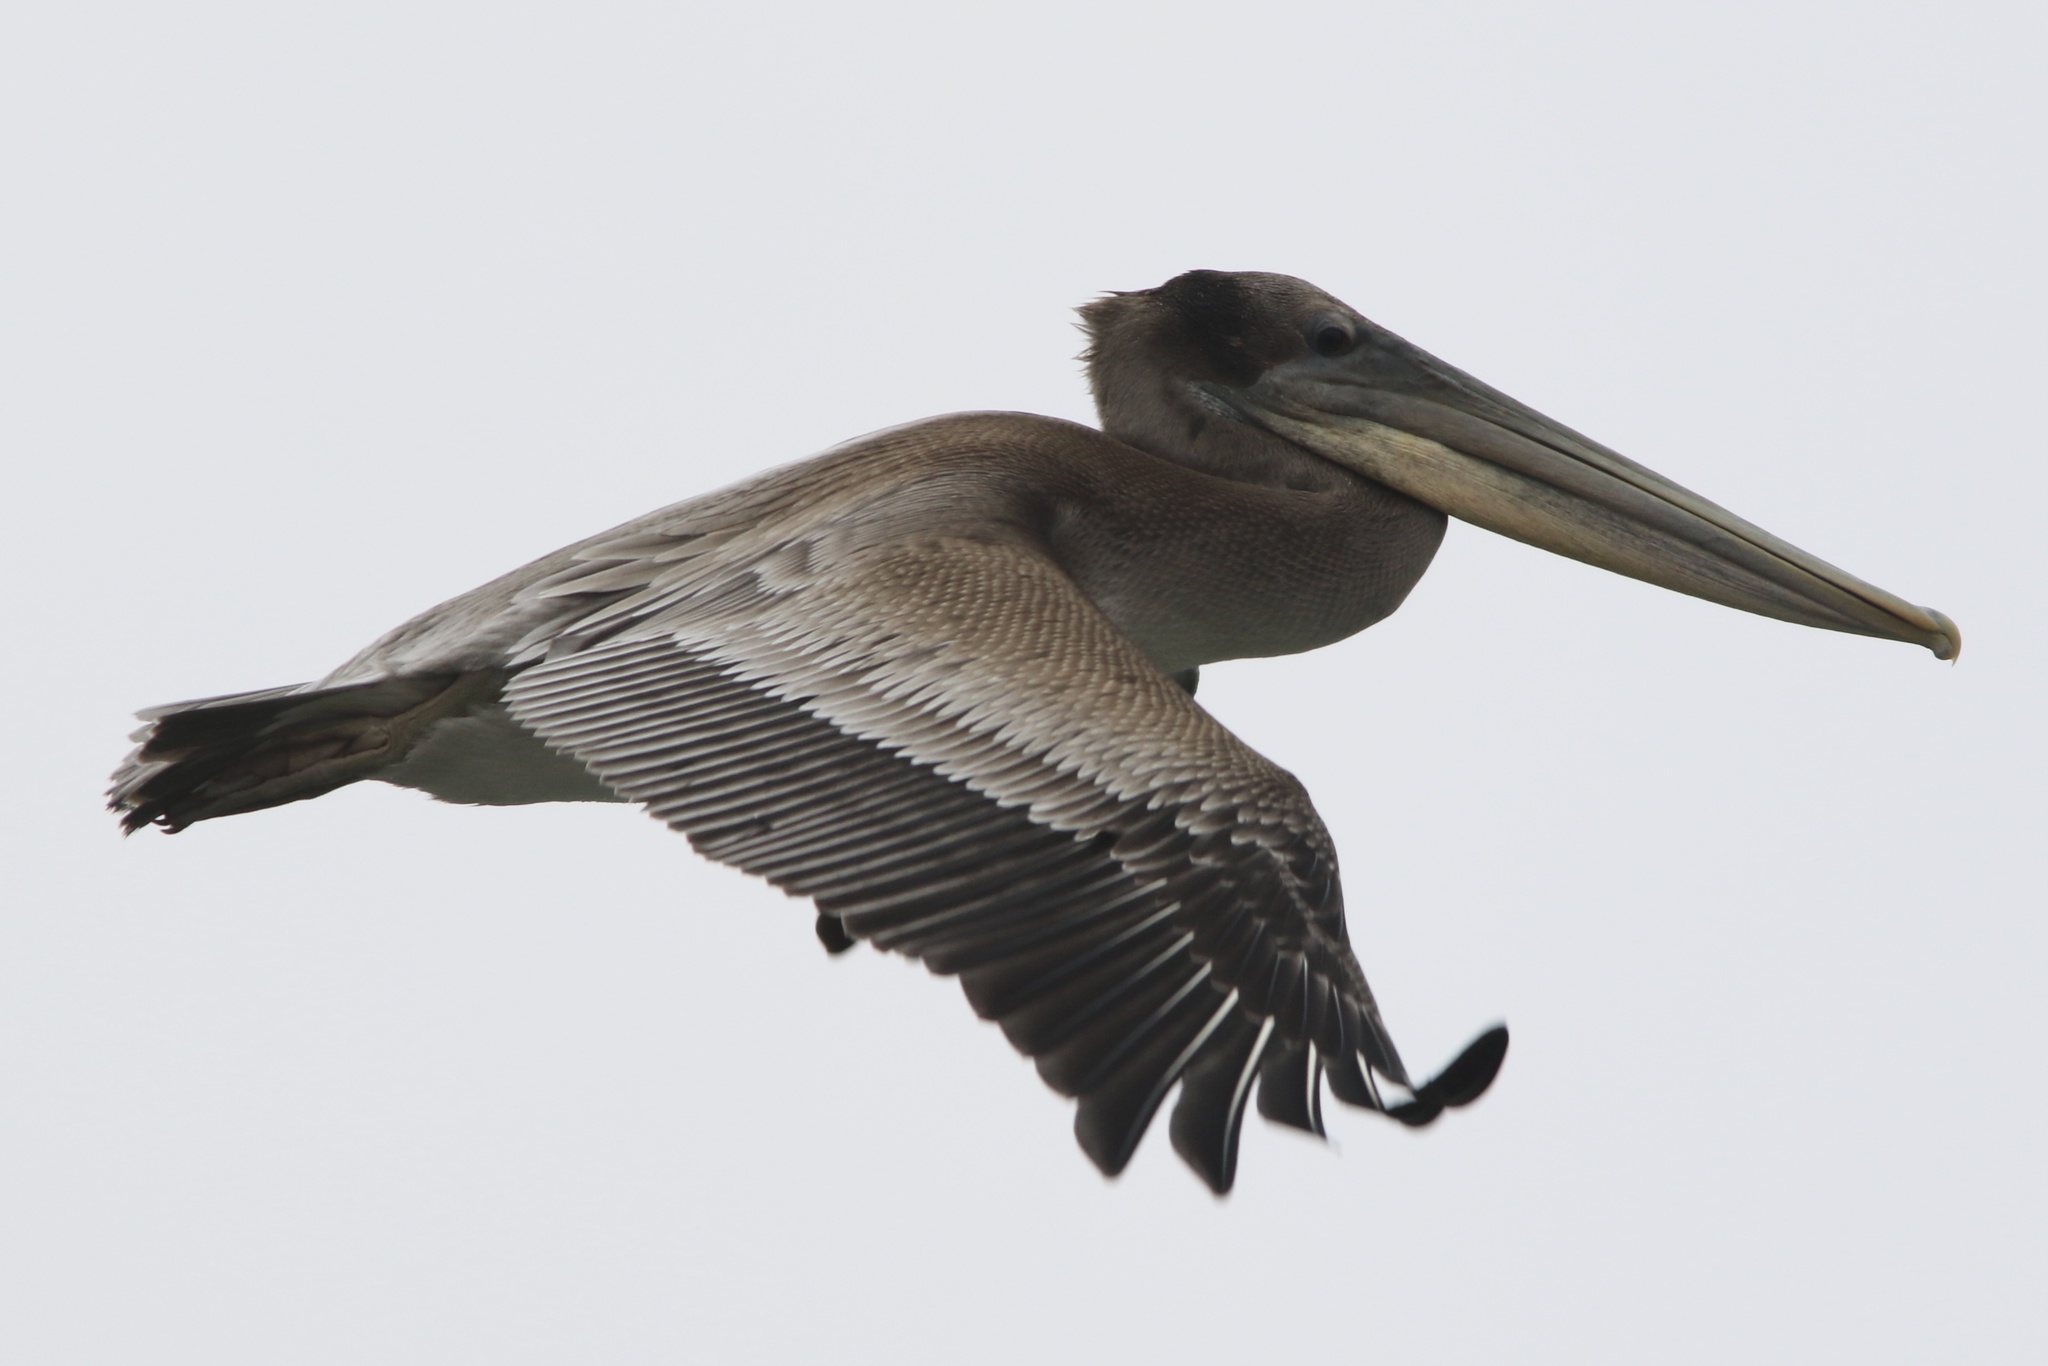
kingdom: Animalia
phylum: Chordata
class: Aves
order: Pelecaniformes
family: Pelecanidae
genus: Pelecanus
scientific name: Pelecanus occidentalis
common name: Brown pelican
